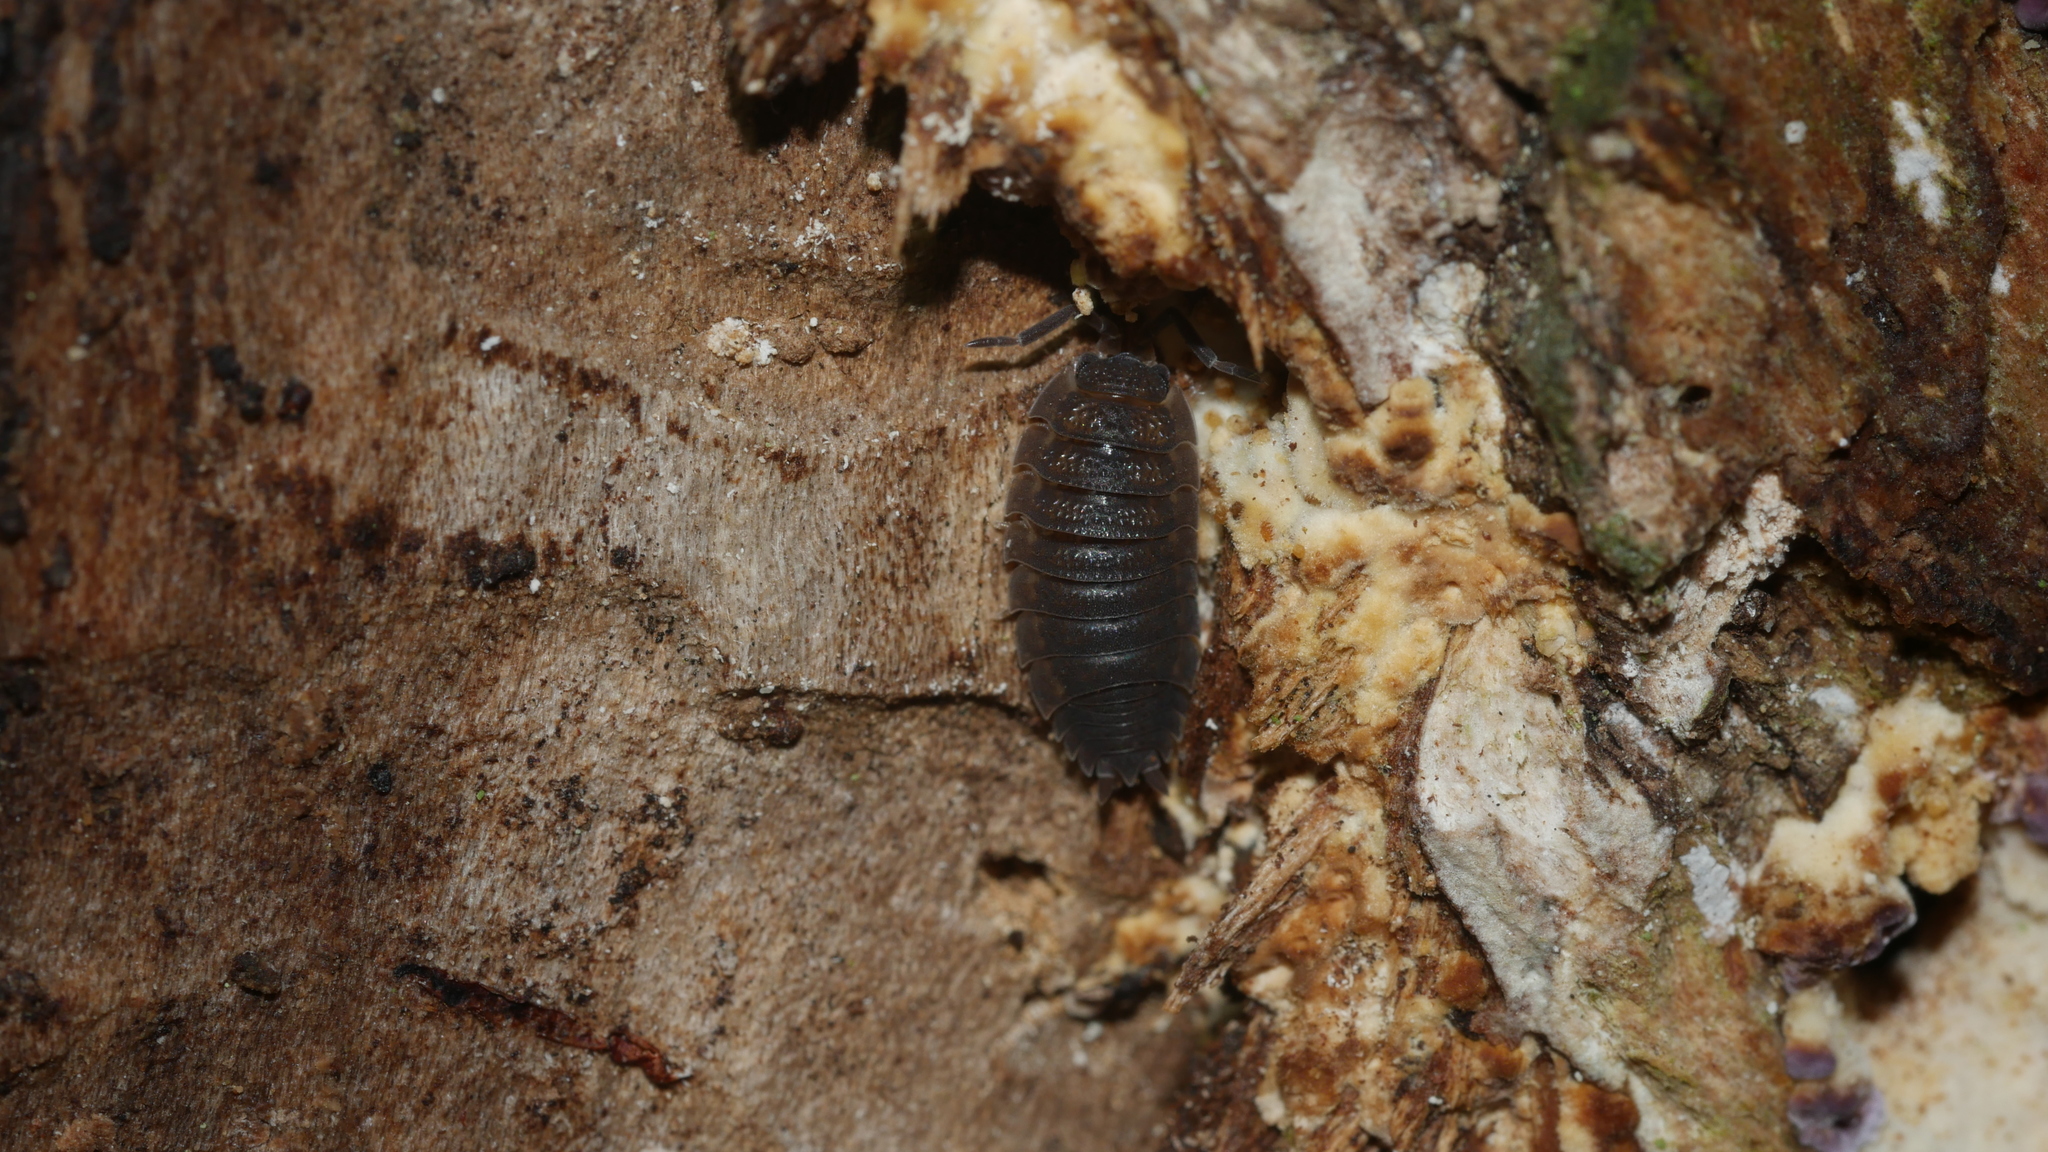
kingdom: Animalia
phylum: Arthropoda
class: Malacostraca
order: Isopoda
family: Porcellionidae
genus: Porcellio
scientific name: Porcellio scaber
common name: Common rough woodlouse
